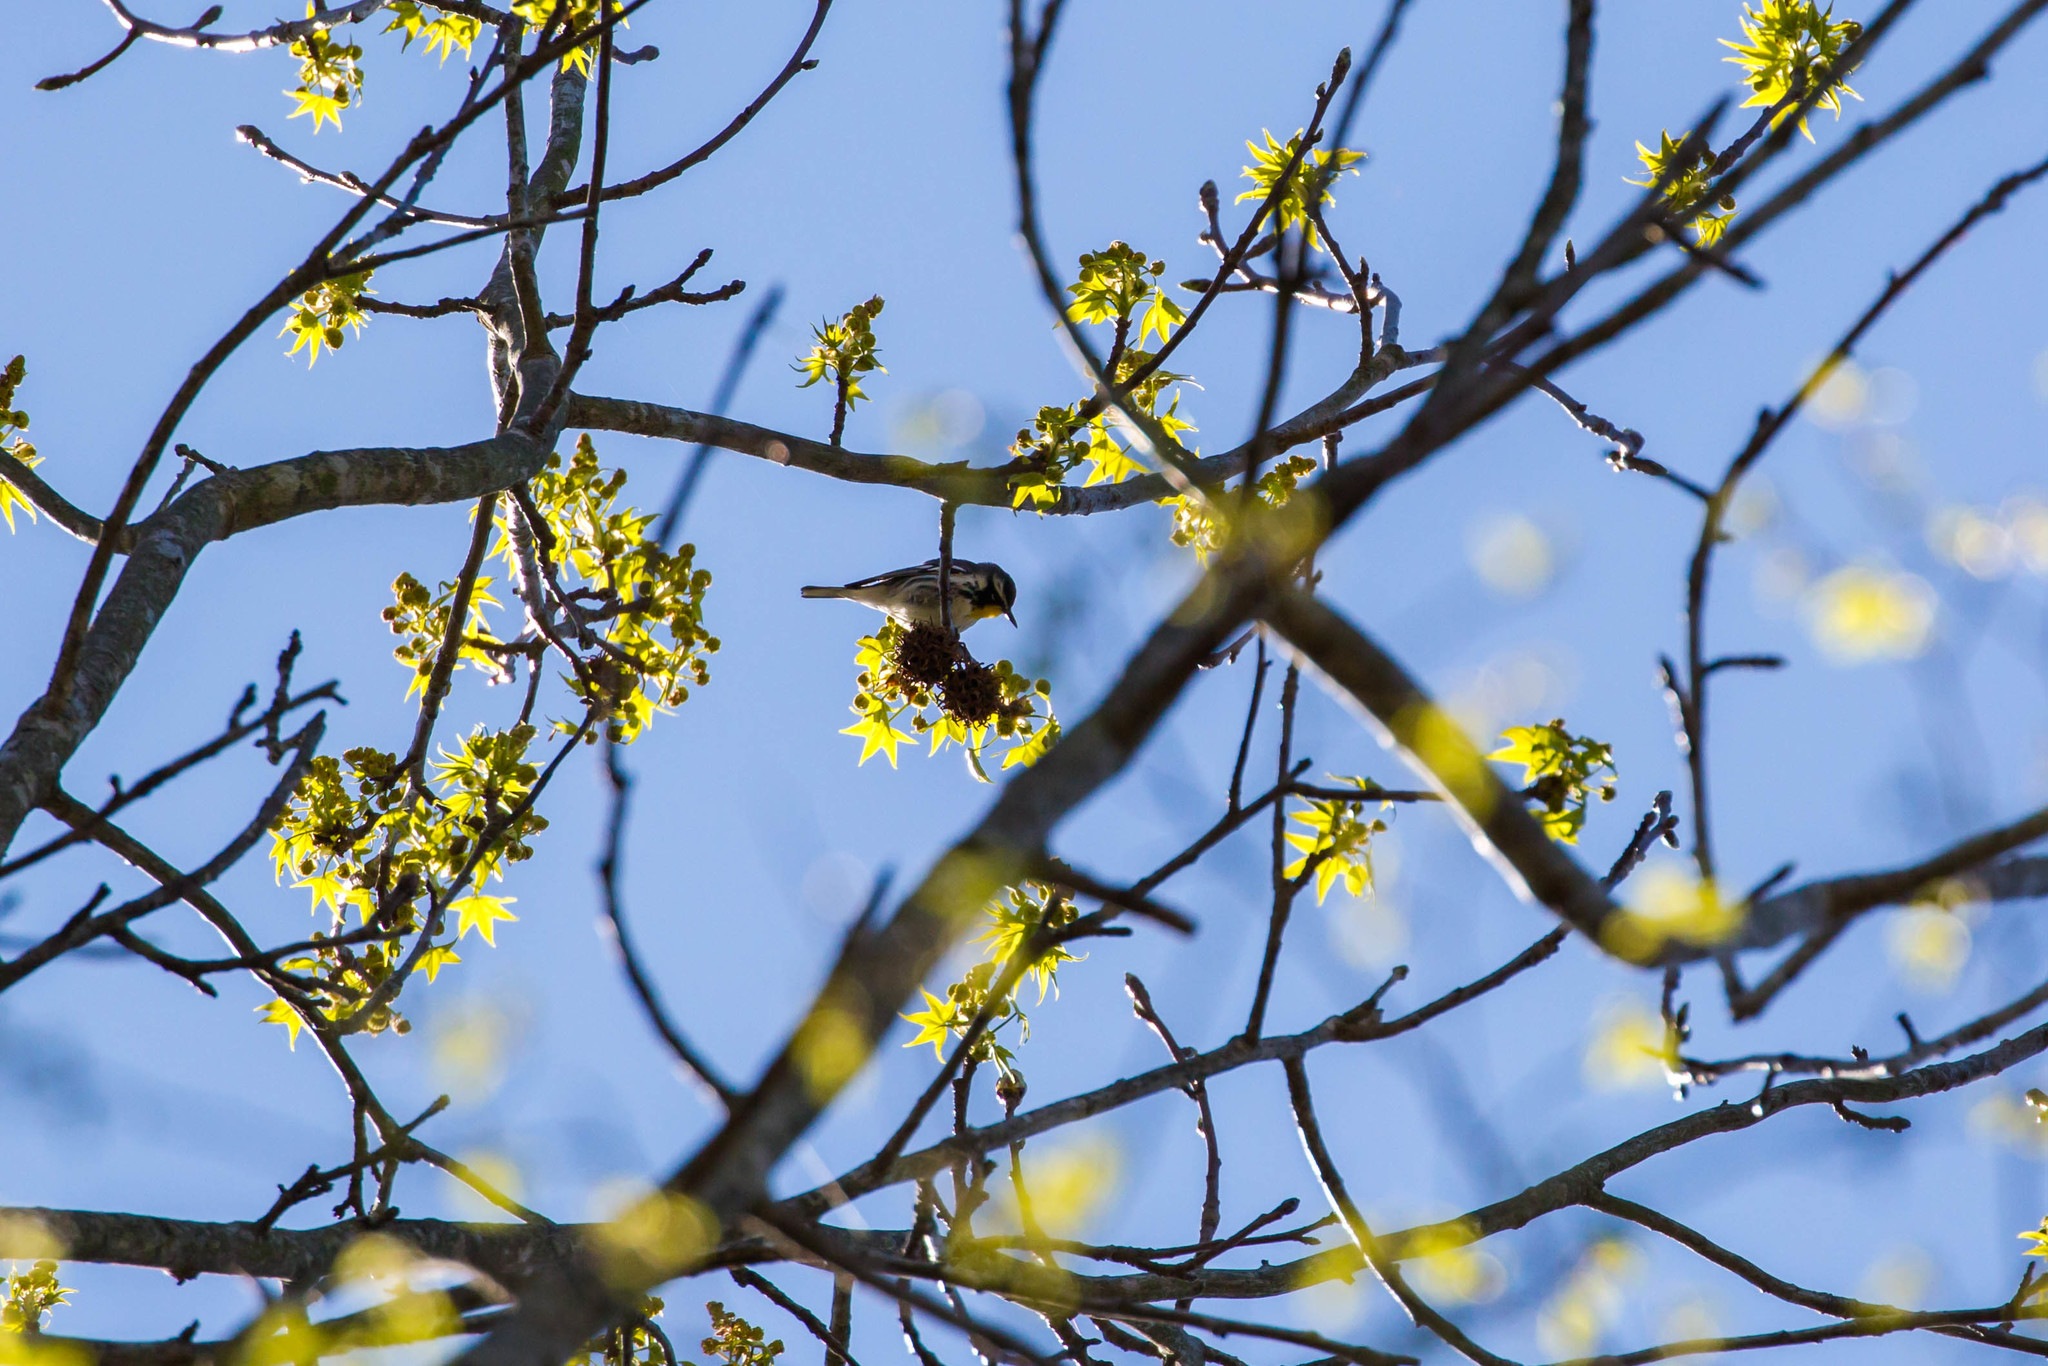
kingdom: Animalia
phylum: Chordata
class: Aves
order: Passeriformes
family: Parulidae
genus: Setophaga
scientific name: Setophaga dominica
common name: Yellow-throated warbler
